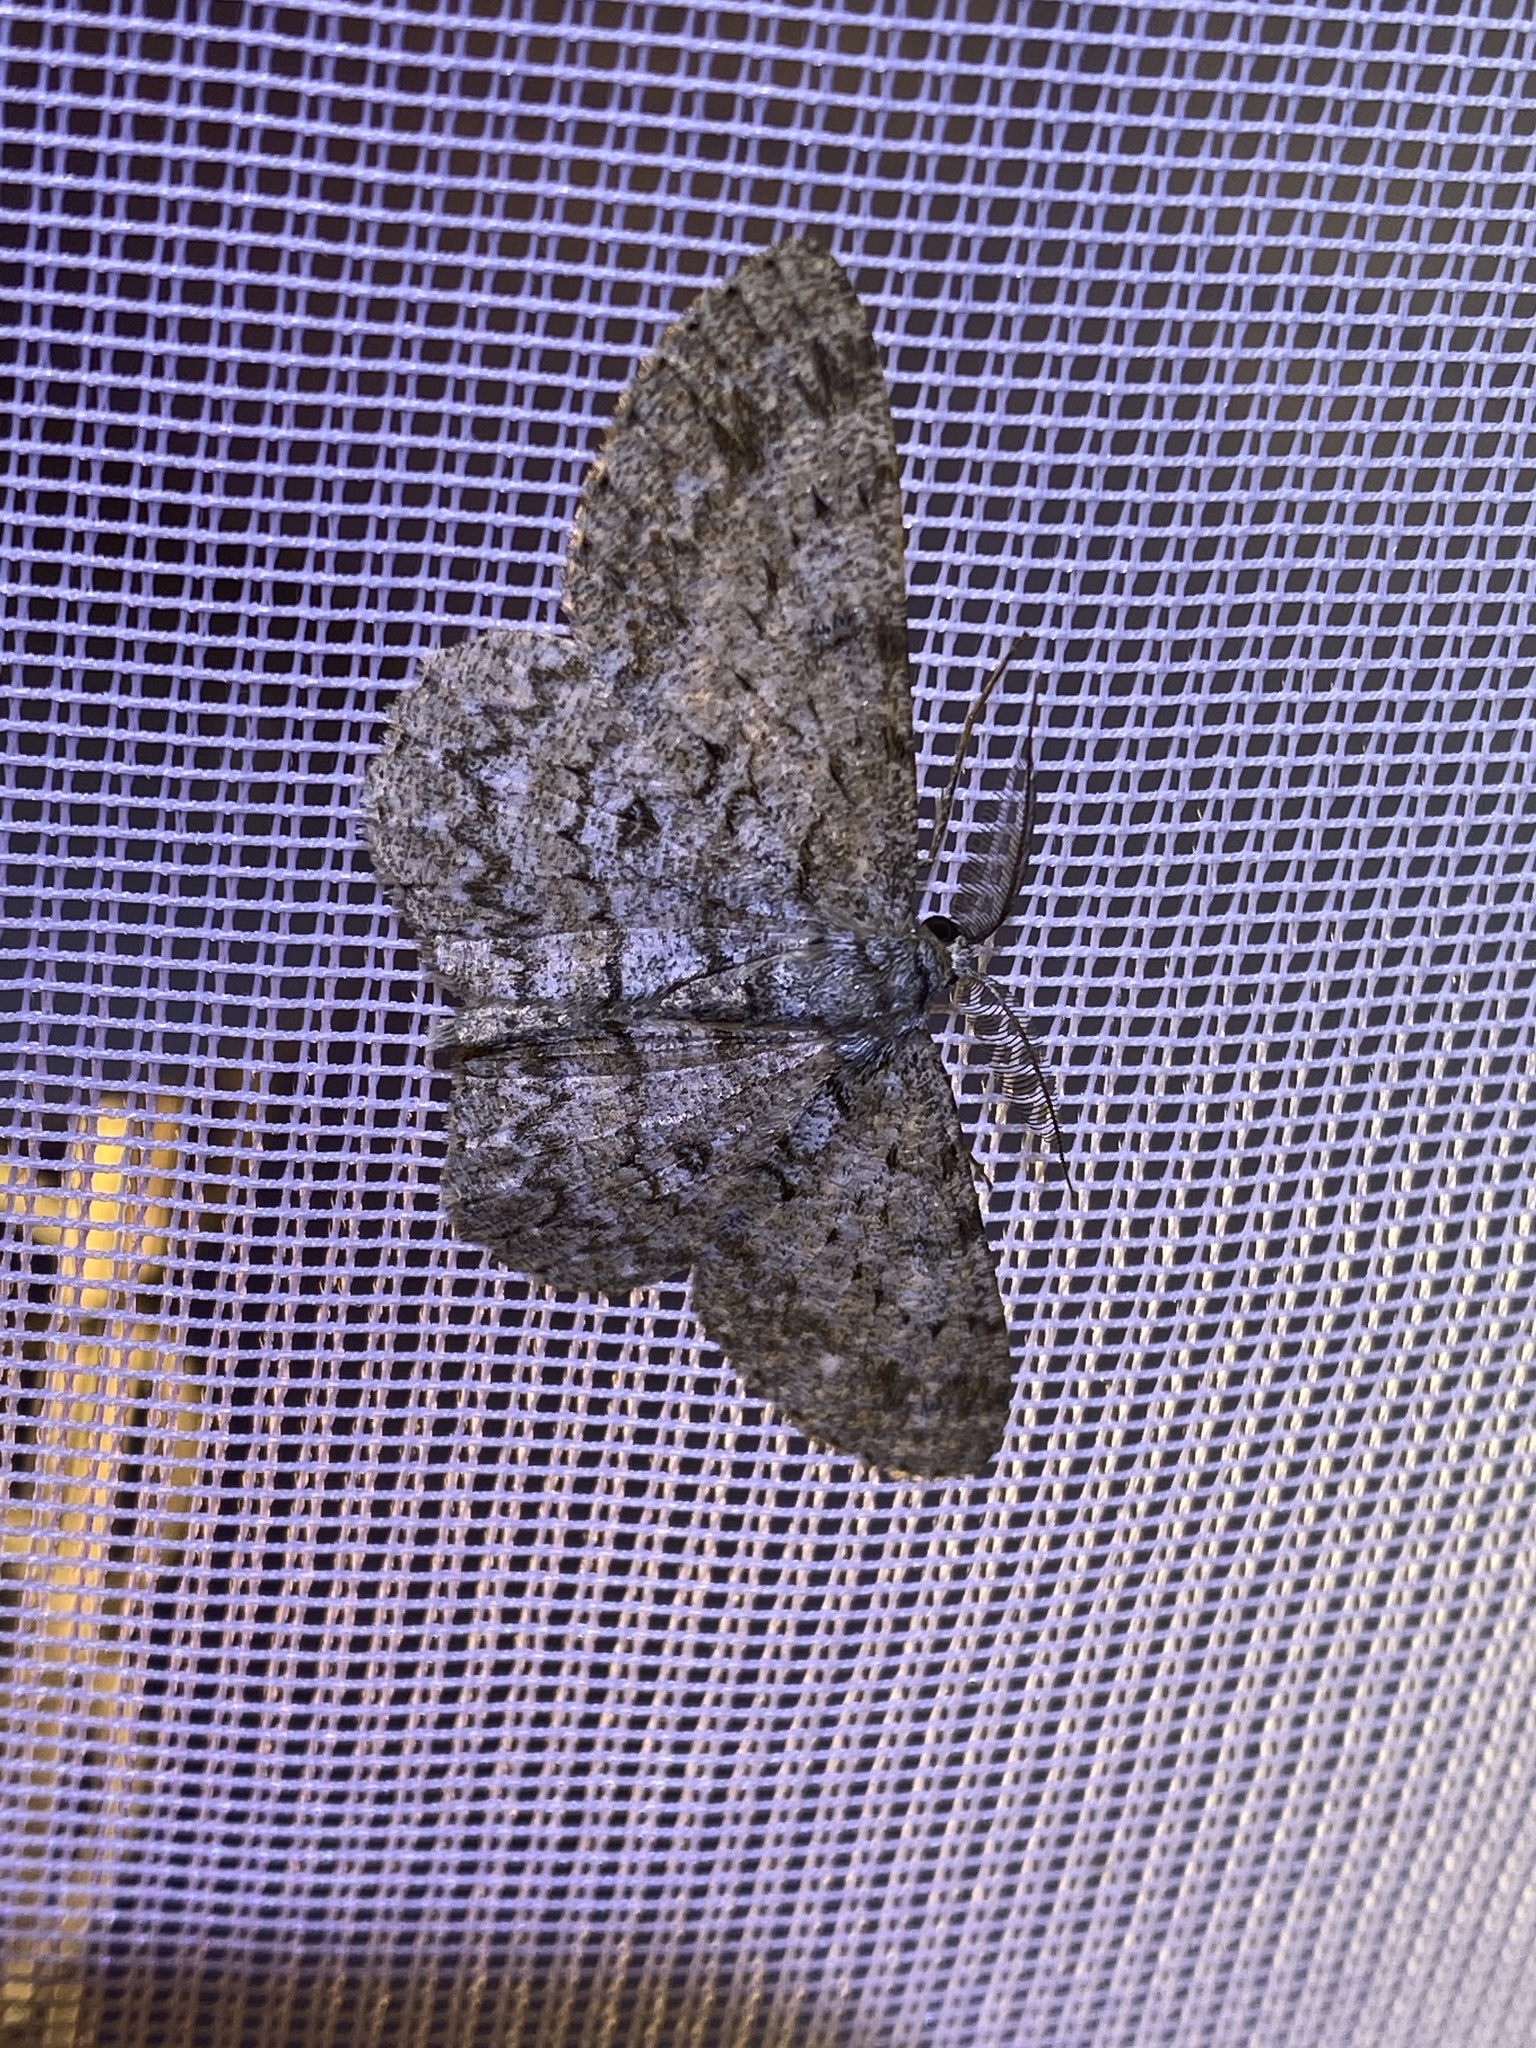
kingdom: Animalia
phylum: Arthropoda
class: Insecta
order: Lepidoptera
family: Geometridae
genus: Hypomecis
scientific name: Hypomecis punctinalis
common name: Pale oak beauty
